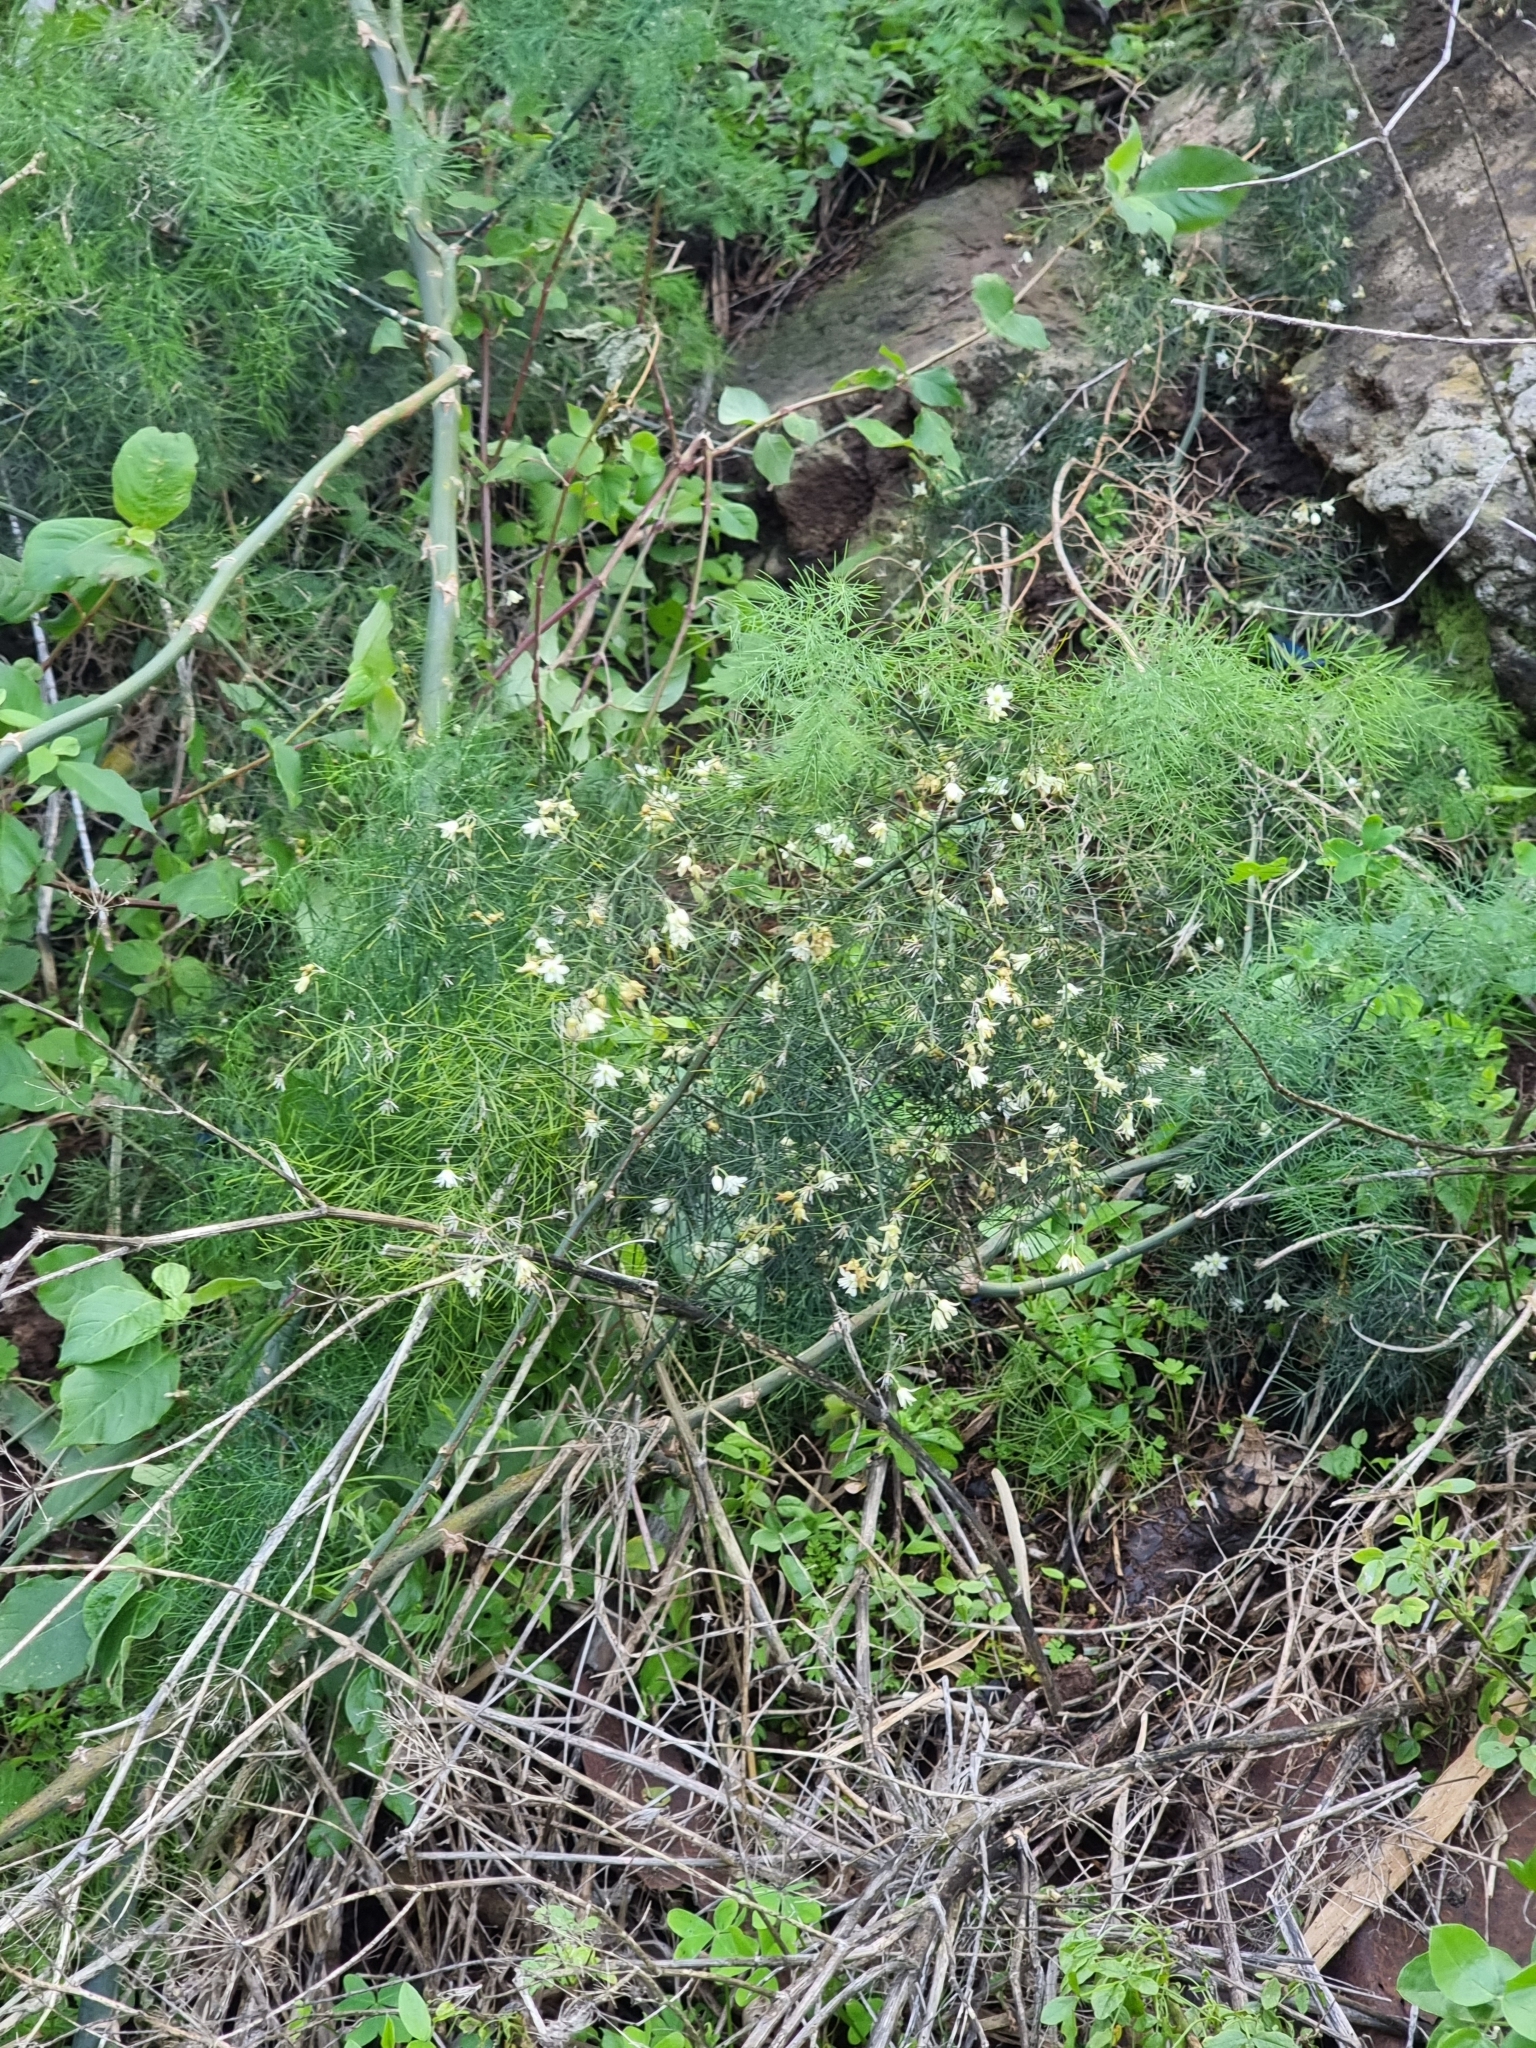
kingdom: Plantae
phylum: Tracheophyta
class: Liliopsida
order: Asparagales
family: Asparagaceae
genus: Asparagus
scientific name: Asparagus umbellatus
